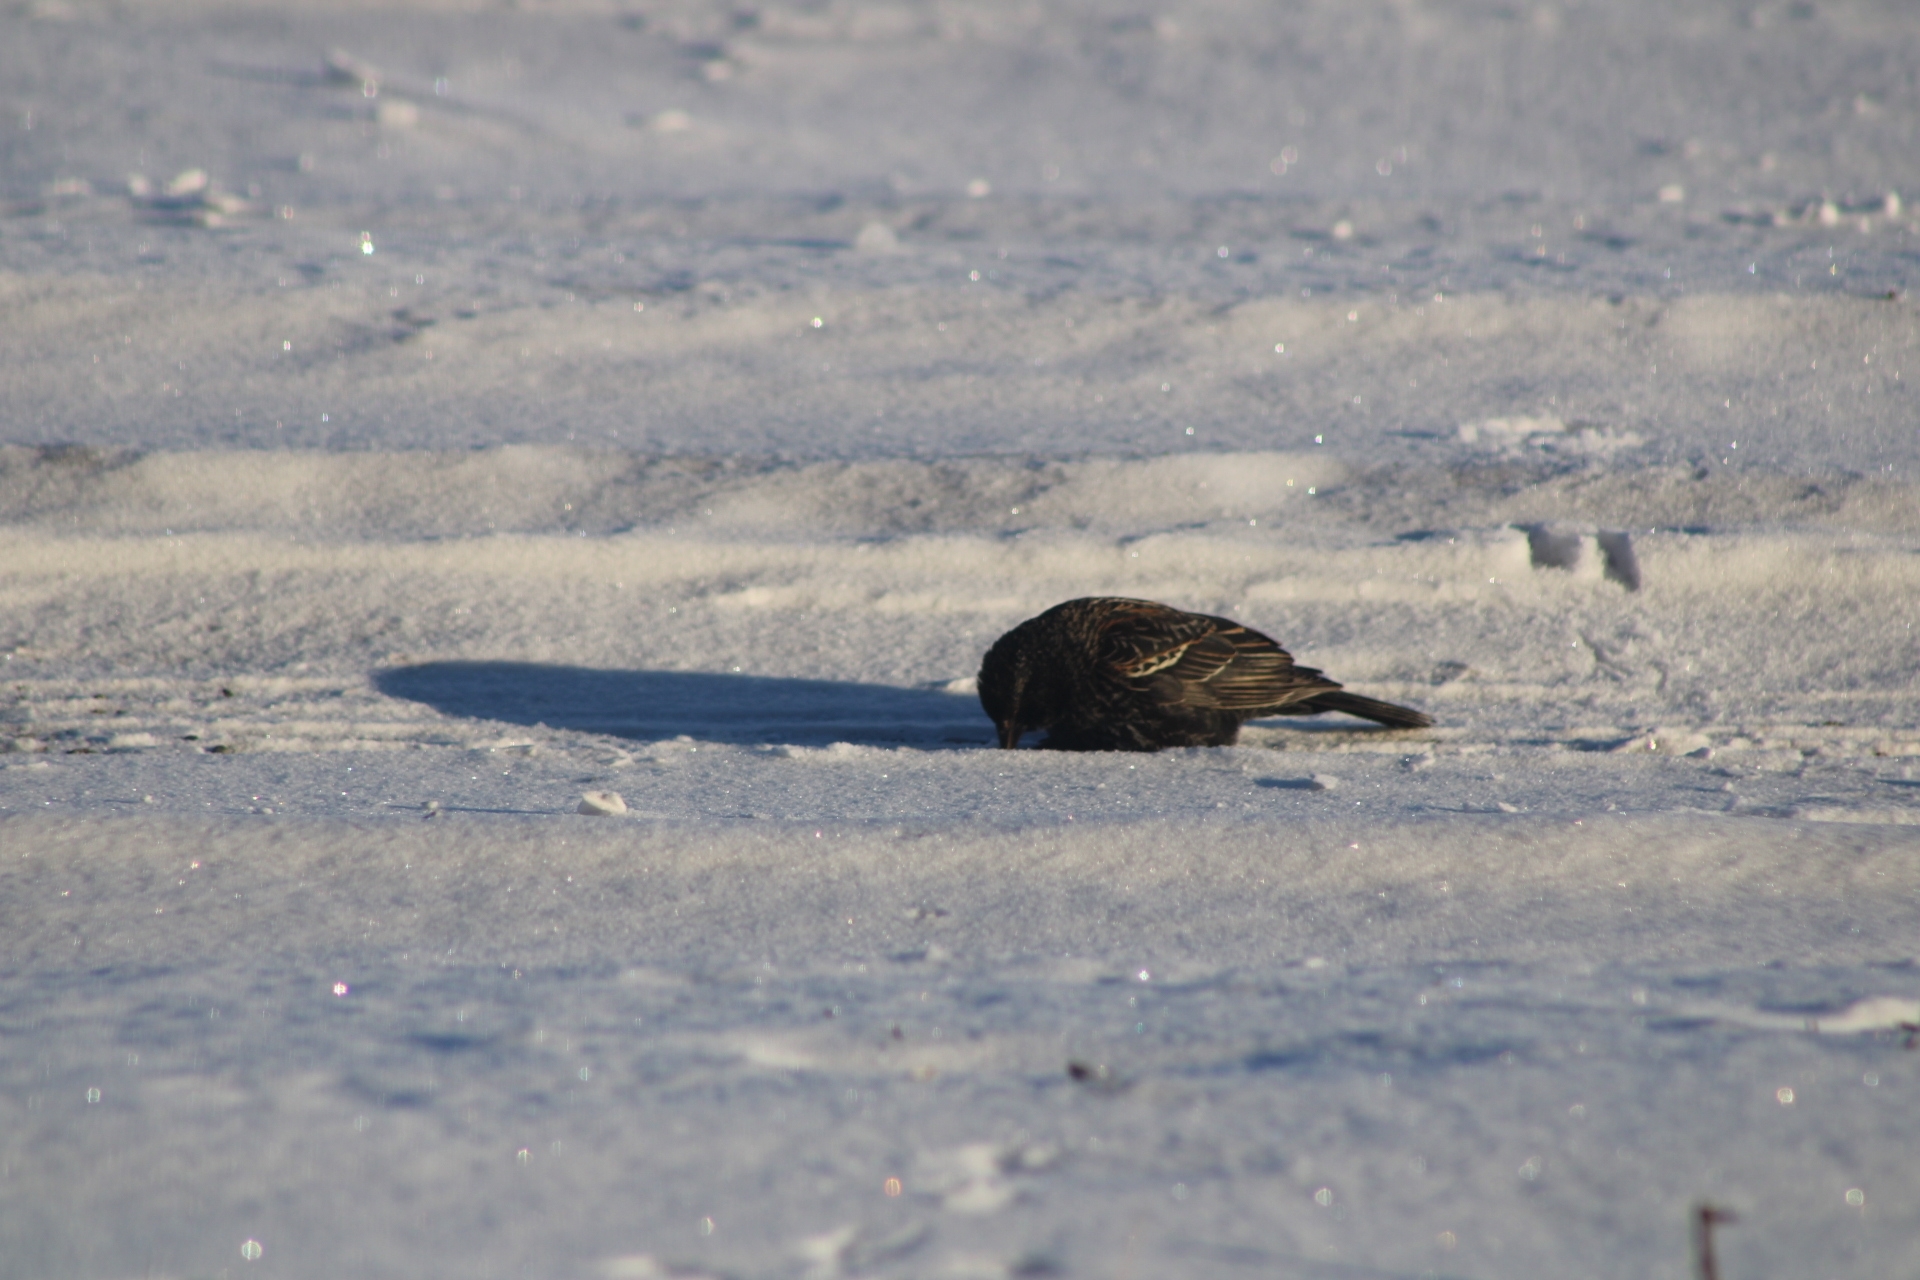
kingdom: Animalia
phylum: Chordata
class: Aves
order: Passeriformes
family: Icteridae
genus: Agelaius
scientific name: Agelaius phoeniceus
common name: Red-winged blackbird
